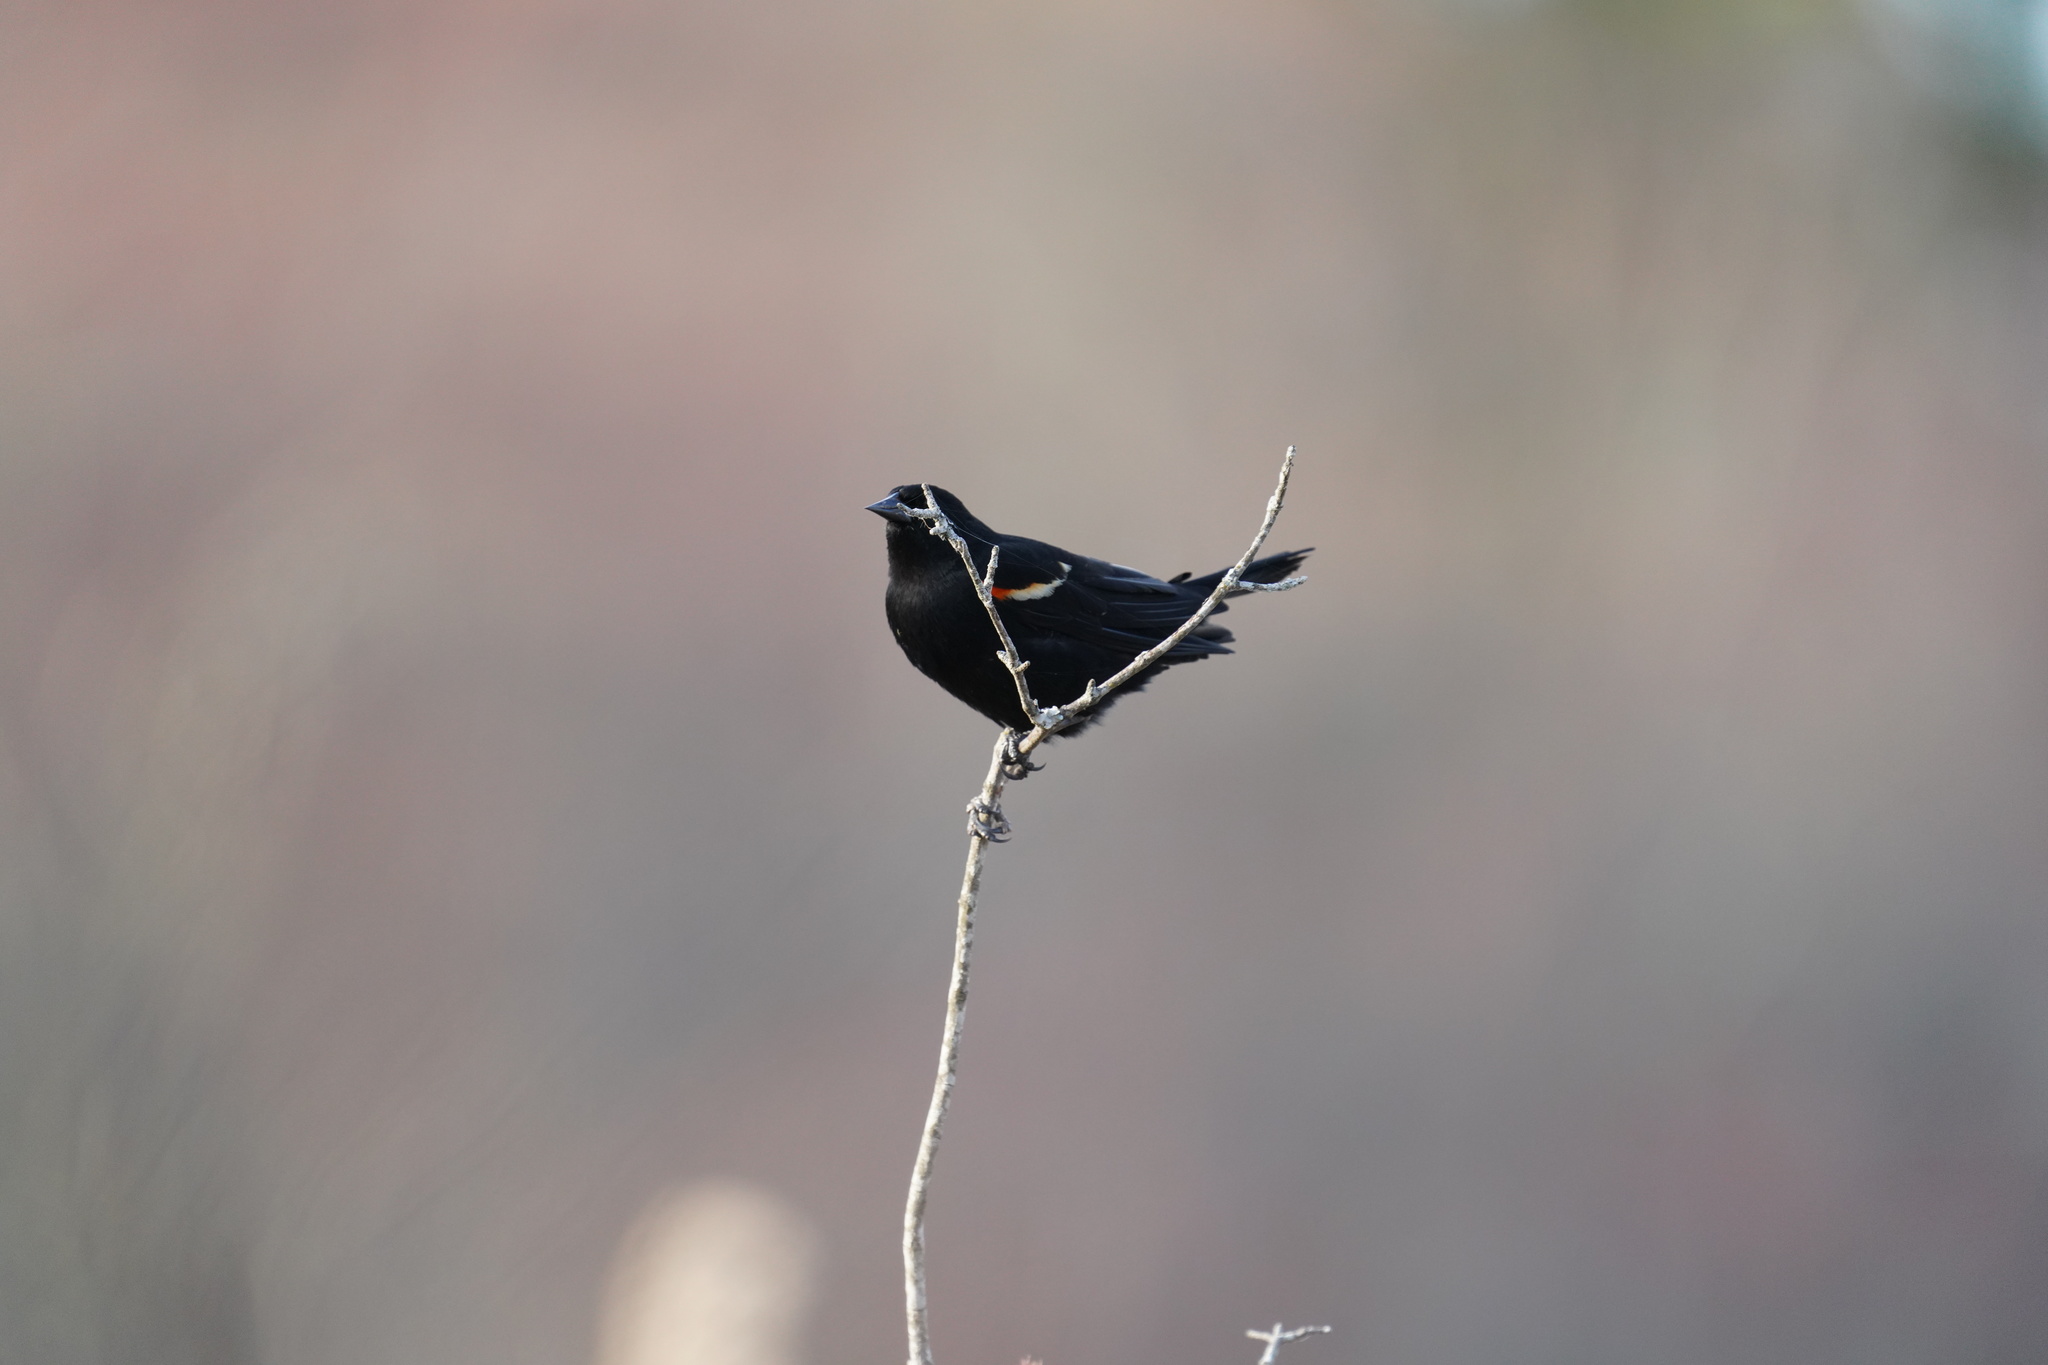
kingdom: Animalia
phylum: Chordata
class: Aves
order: Passeriformes
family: Icteridae
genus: Agelaius
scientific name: Agelaius phoeniceus
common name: Red-winged blackbird
